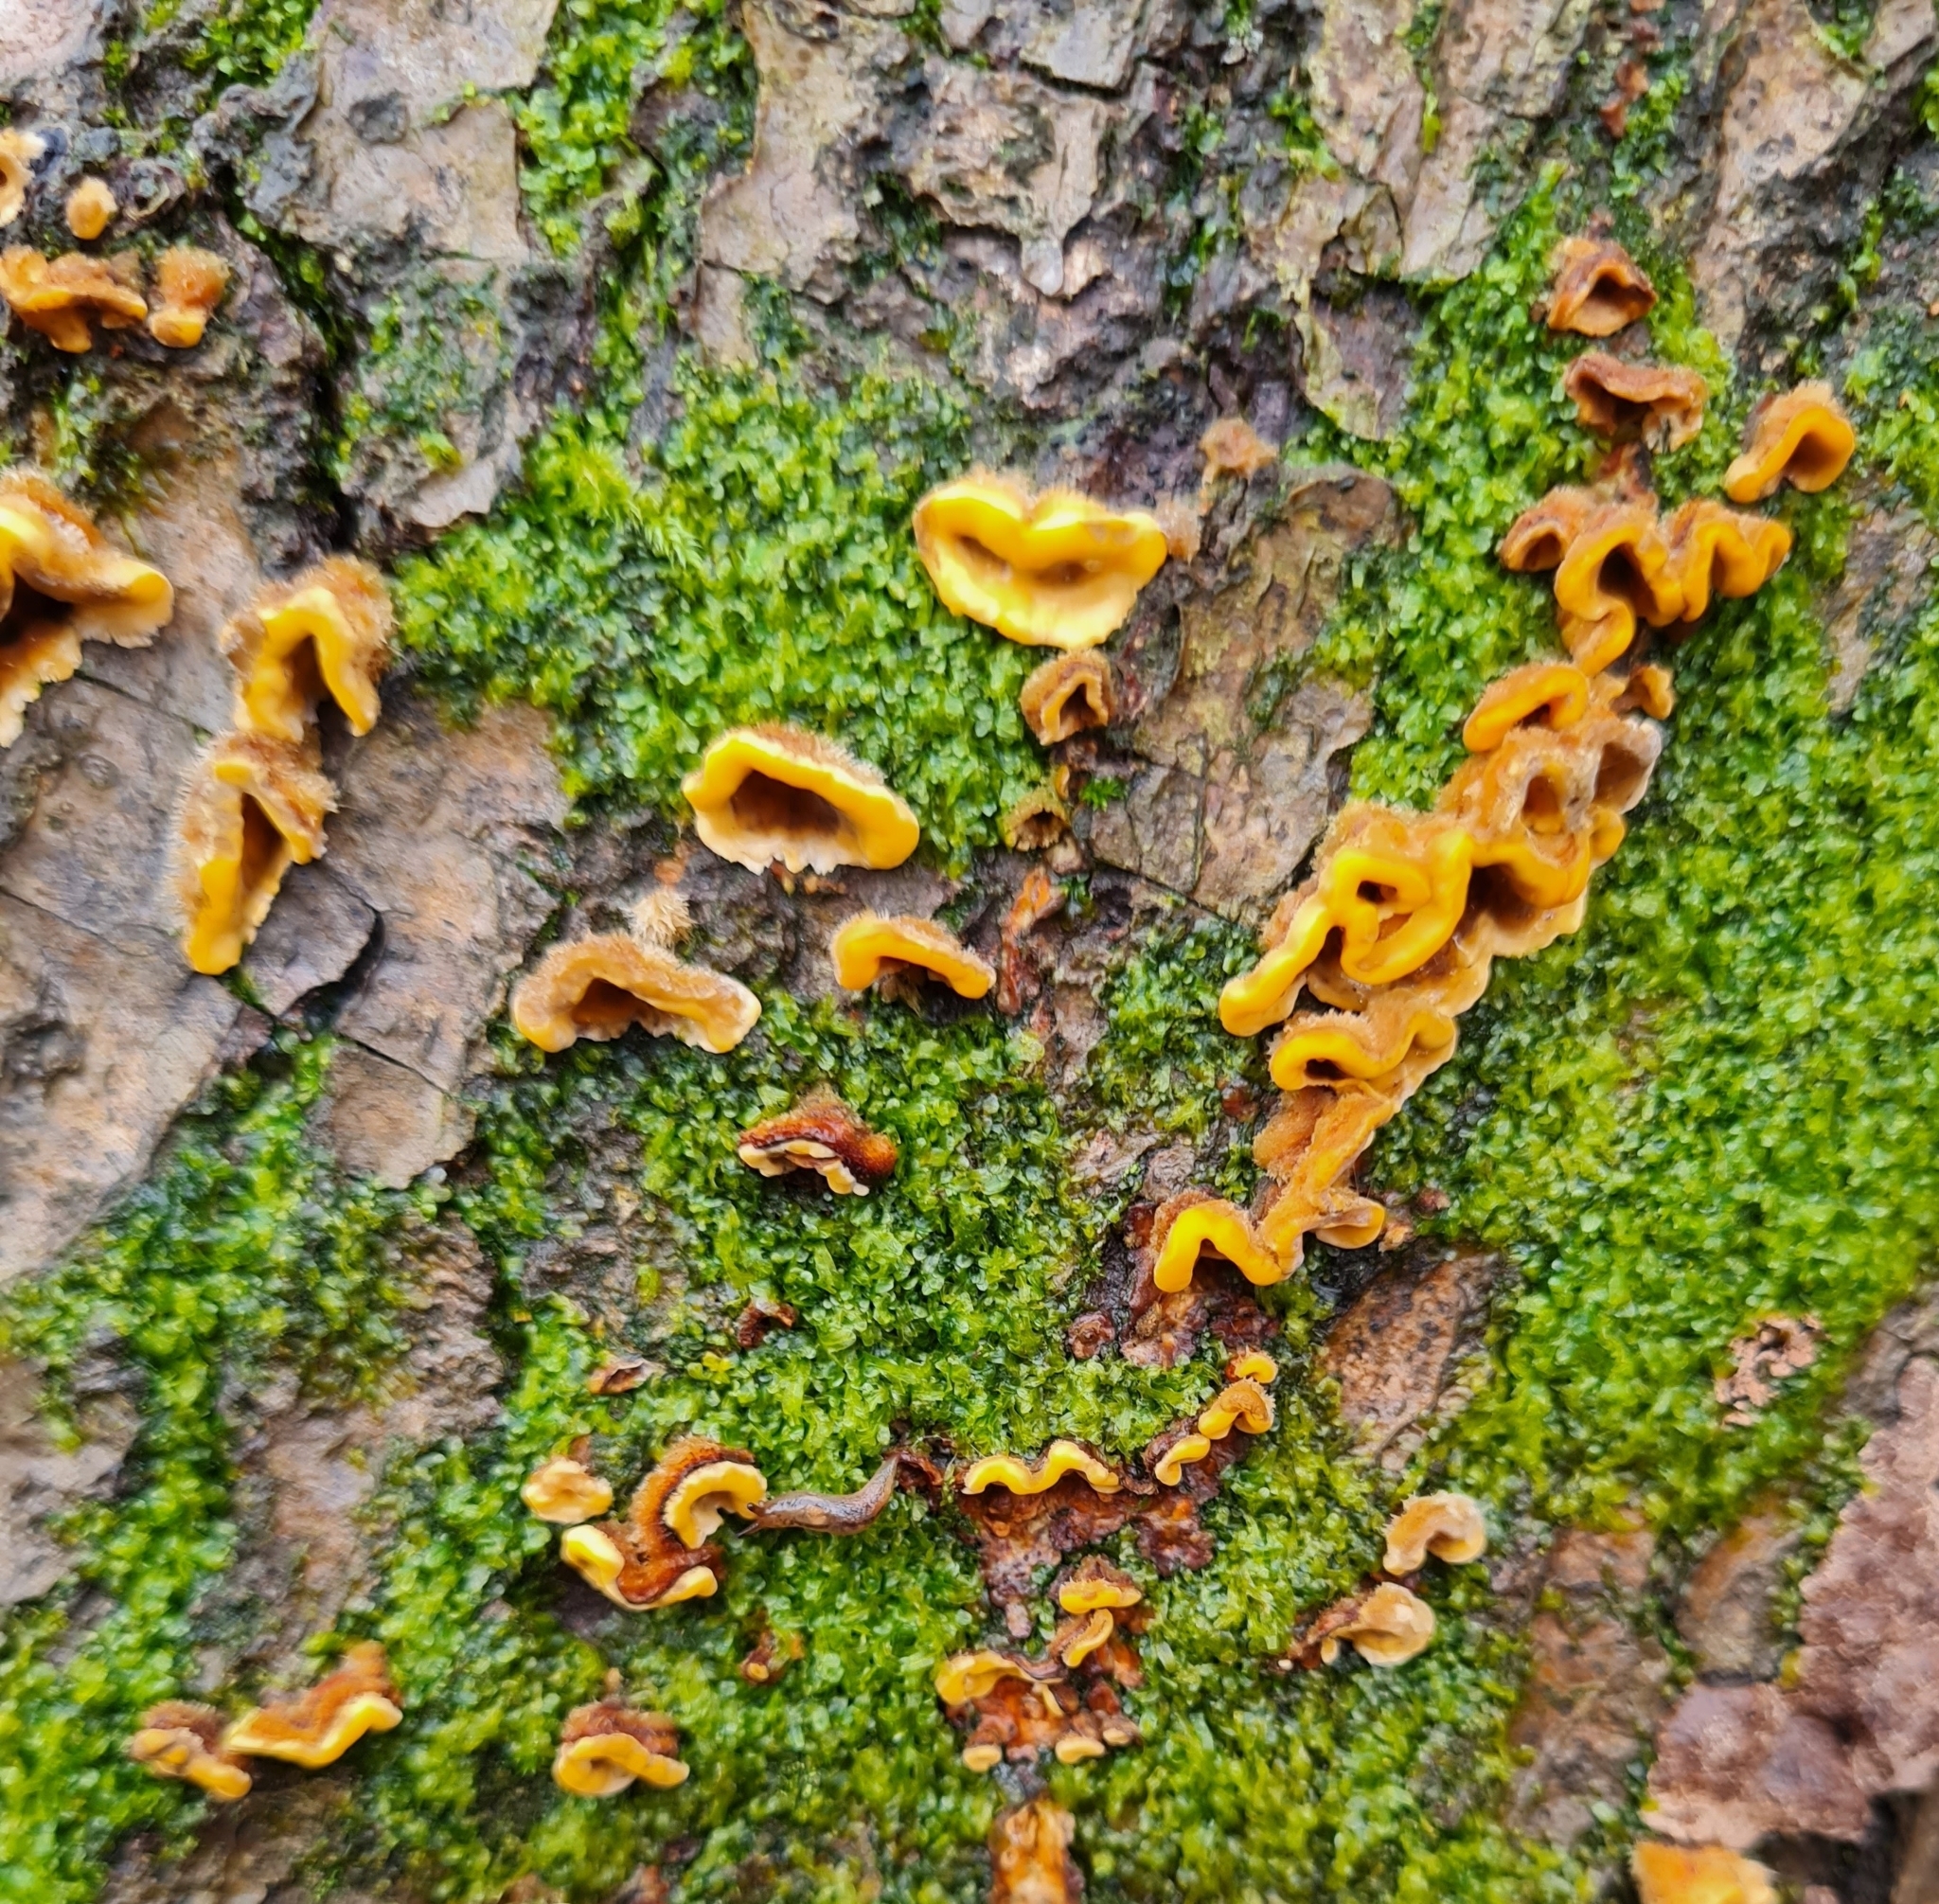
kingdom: Fungi
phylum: Basidiomycota
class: Agaricomycetes
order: Russulales
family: Stereaceae
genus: Stereum
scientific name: Stereum hirsutum
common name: Hairy curtain crust
